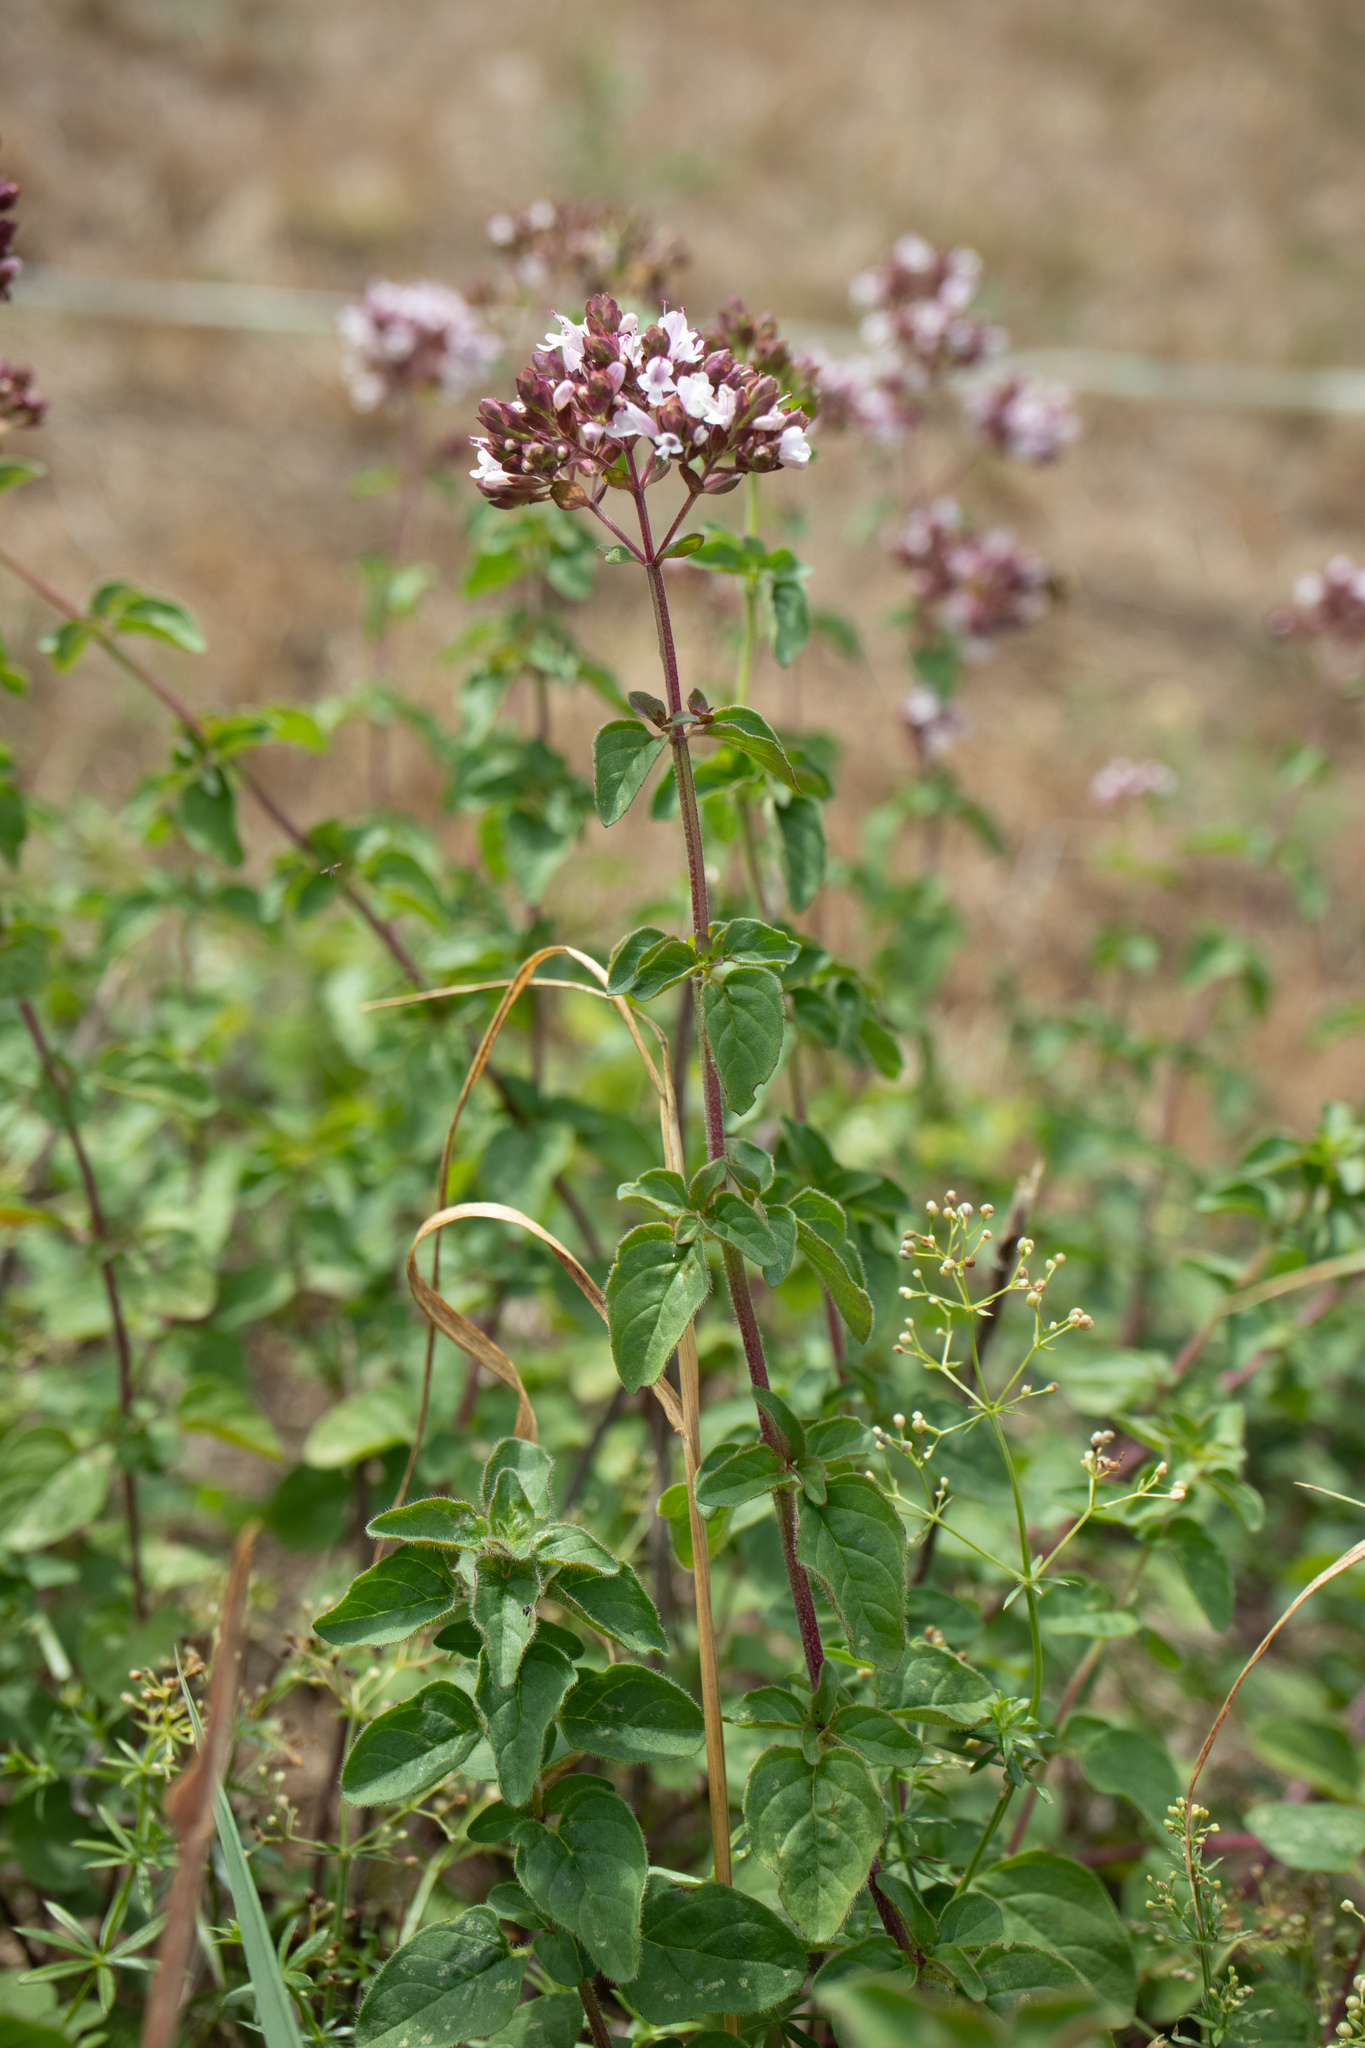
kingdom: Plantae
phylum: Tracheophyta
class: Magnoliopsida
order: Lamiales
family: Lamiaceae
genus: Origanum
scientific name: Origanum vulgare
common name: Wild marjoram
